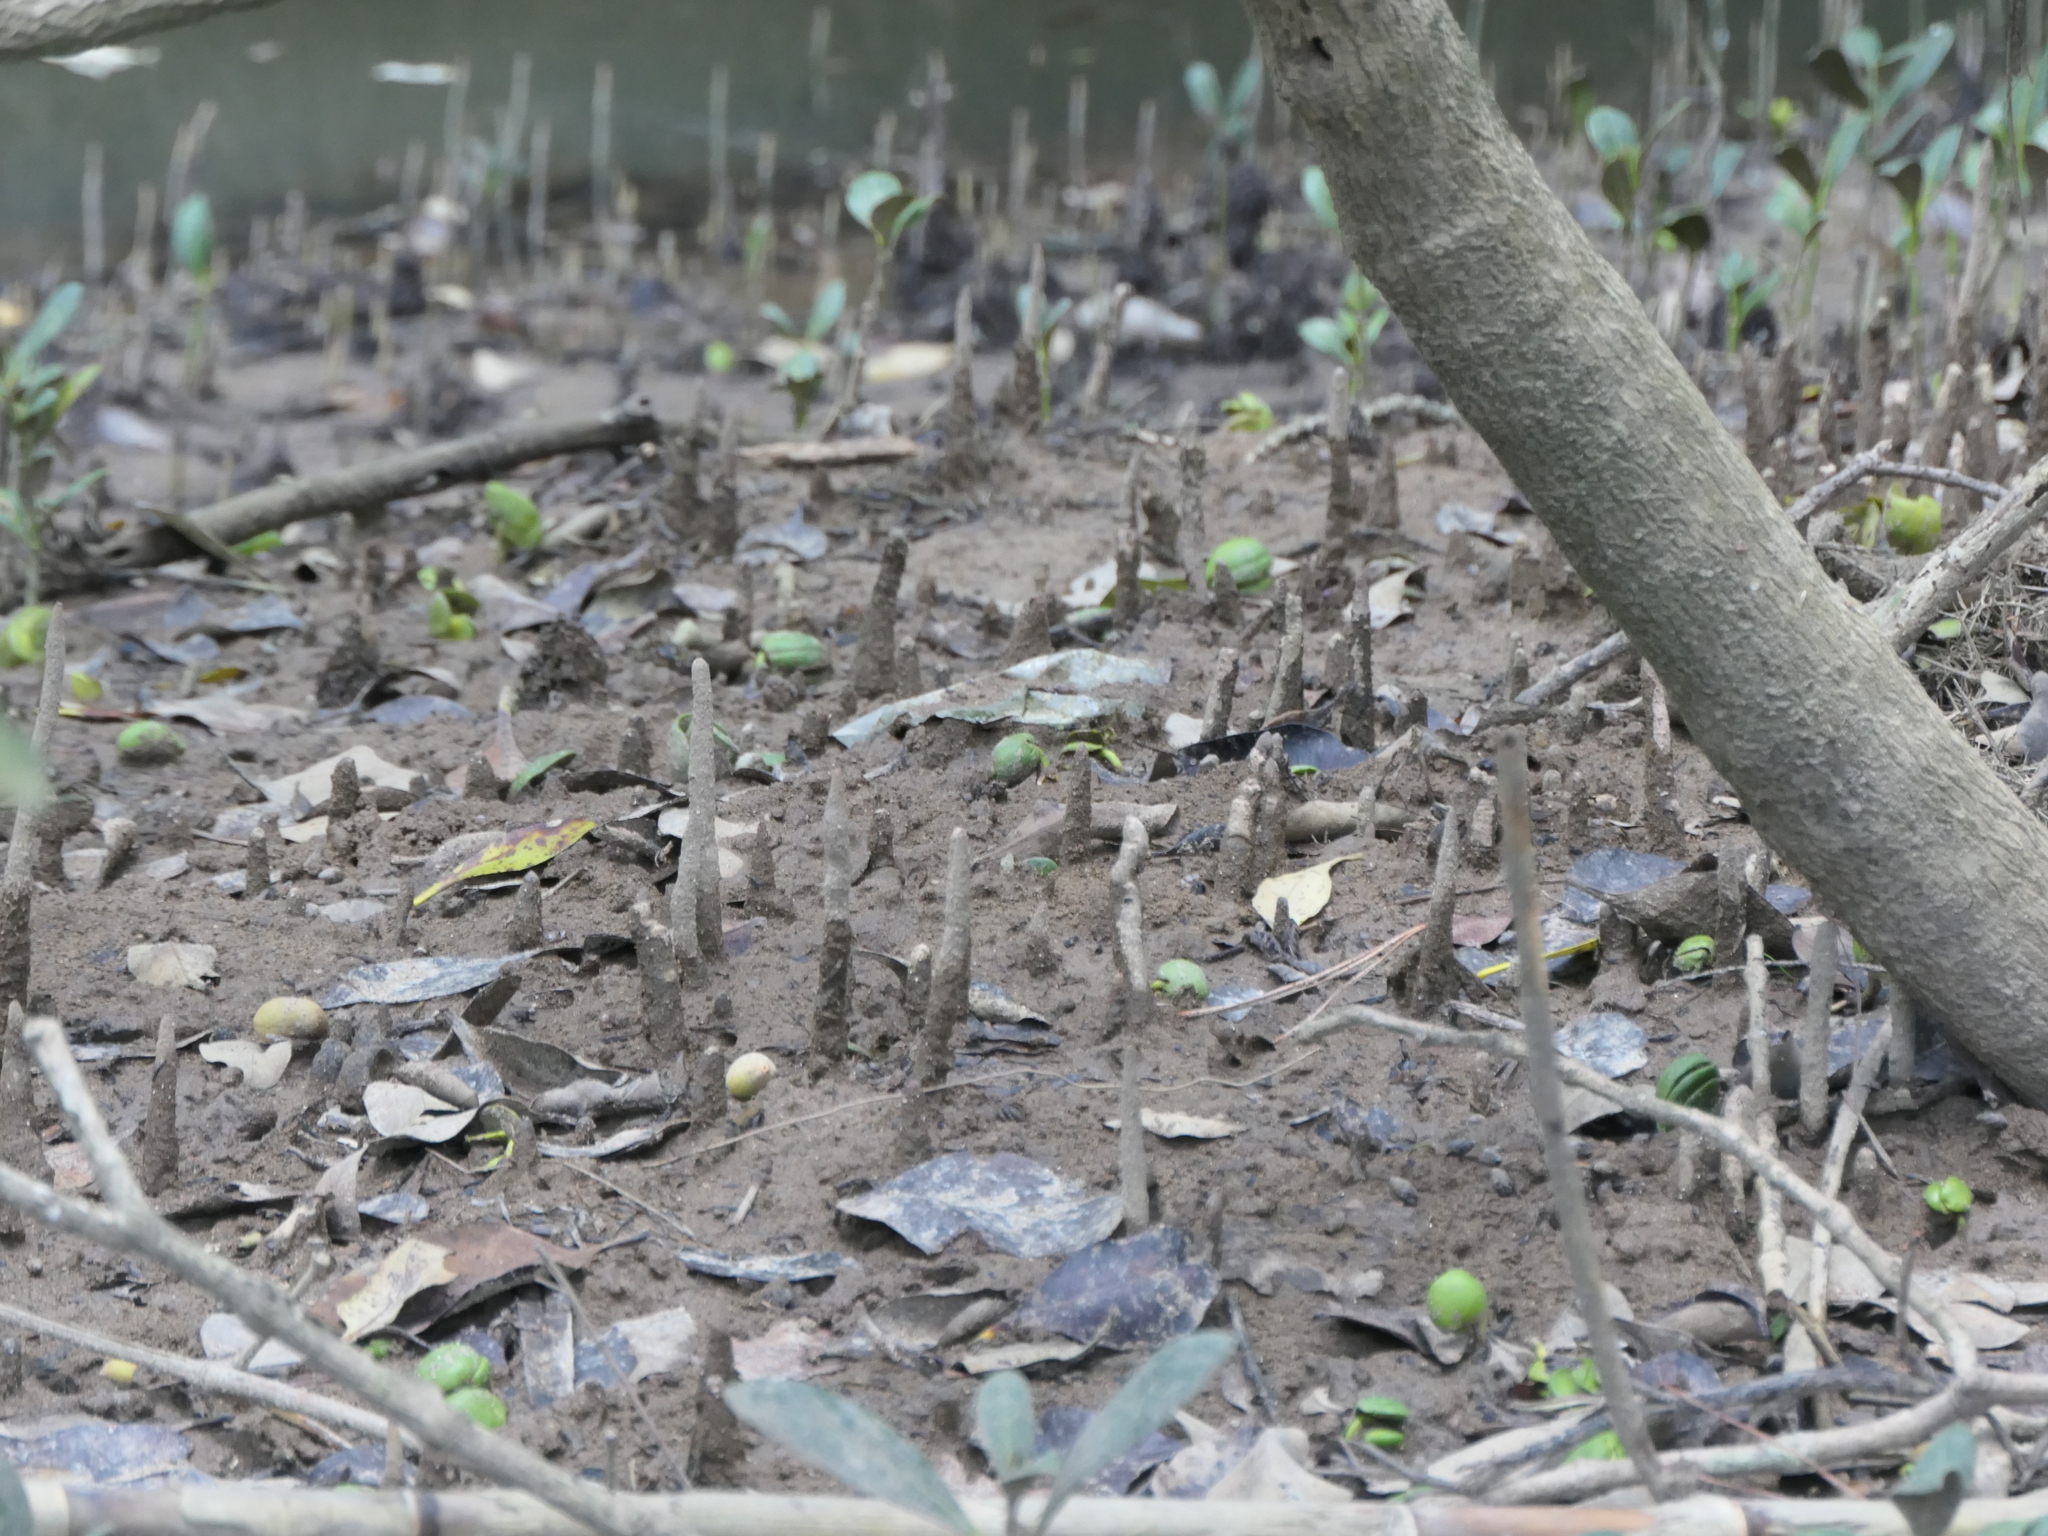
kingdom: Plantae
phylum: Tracheophyta
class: Magnoliopsida
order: Lamiales
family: Acanthaceae
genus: Avicennia
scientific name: Avicennia marina
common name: Gray mangrove
